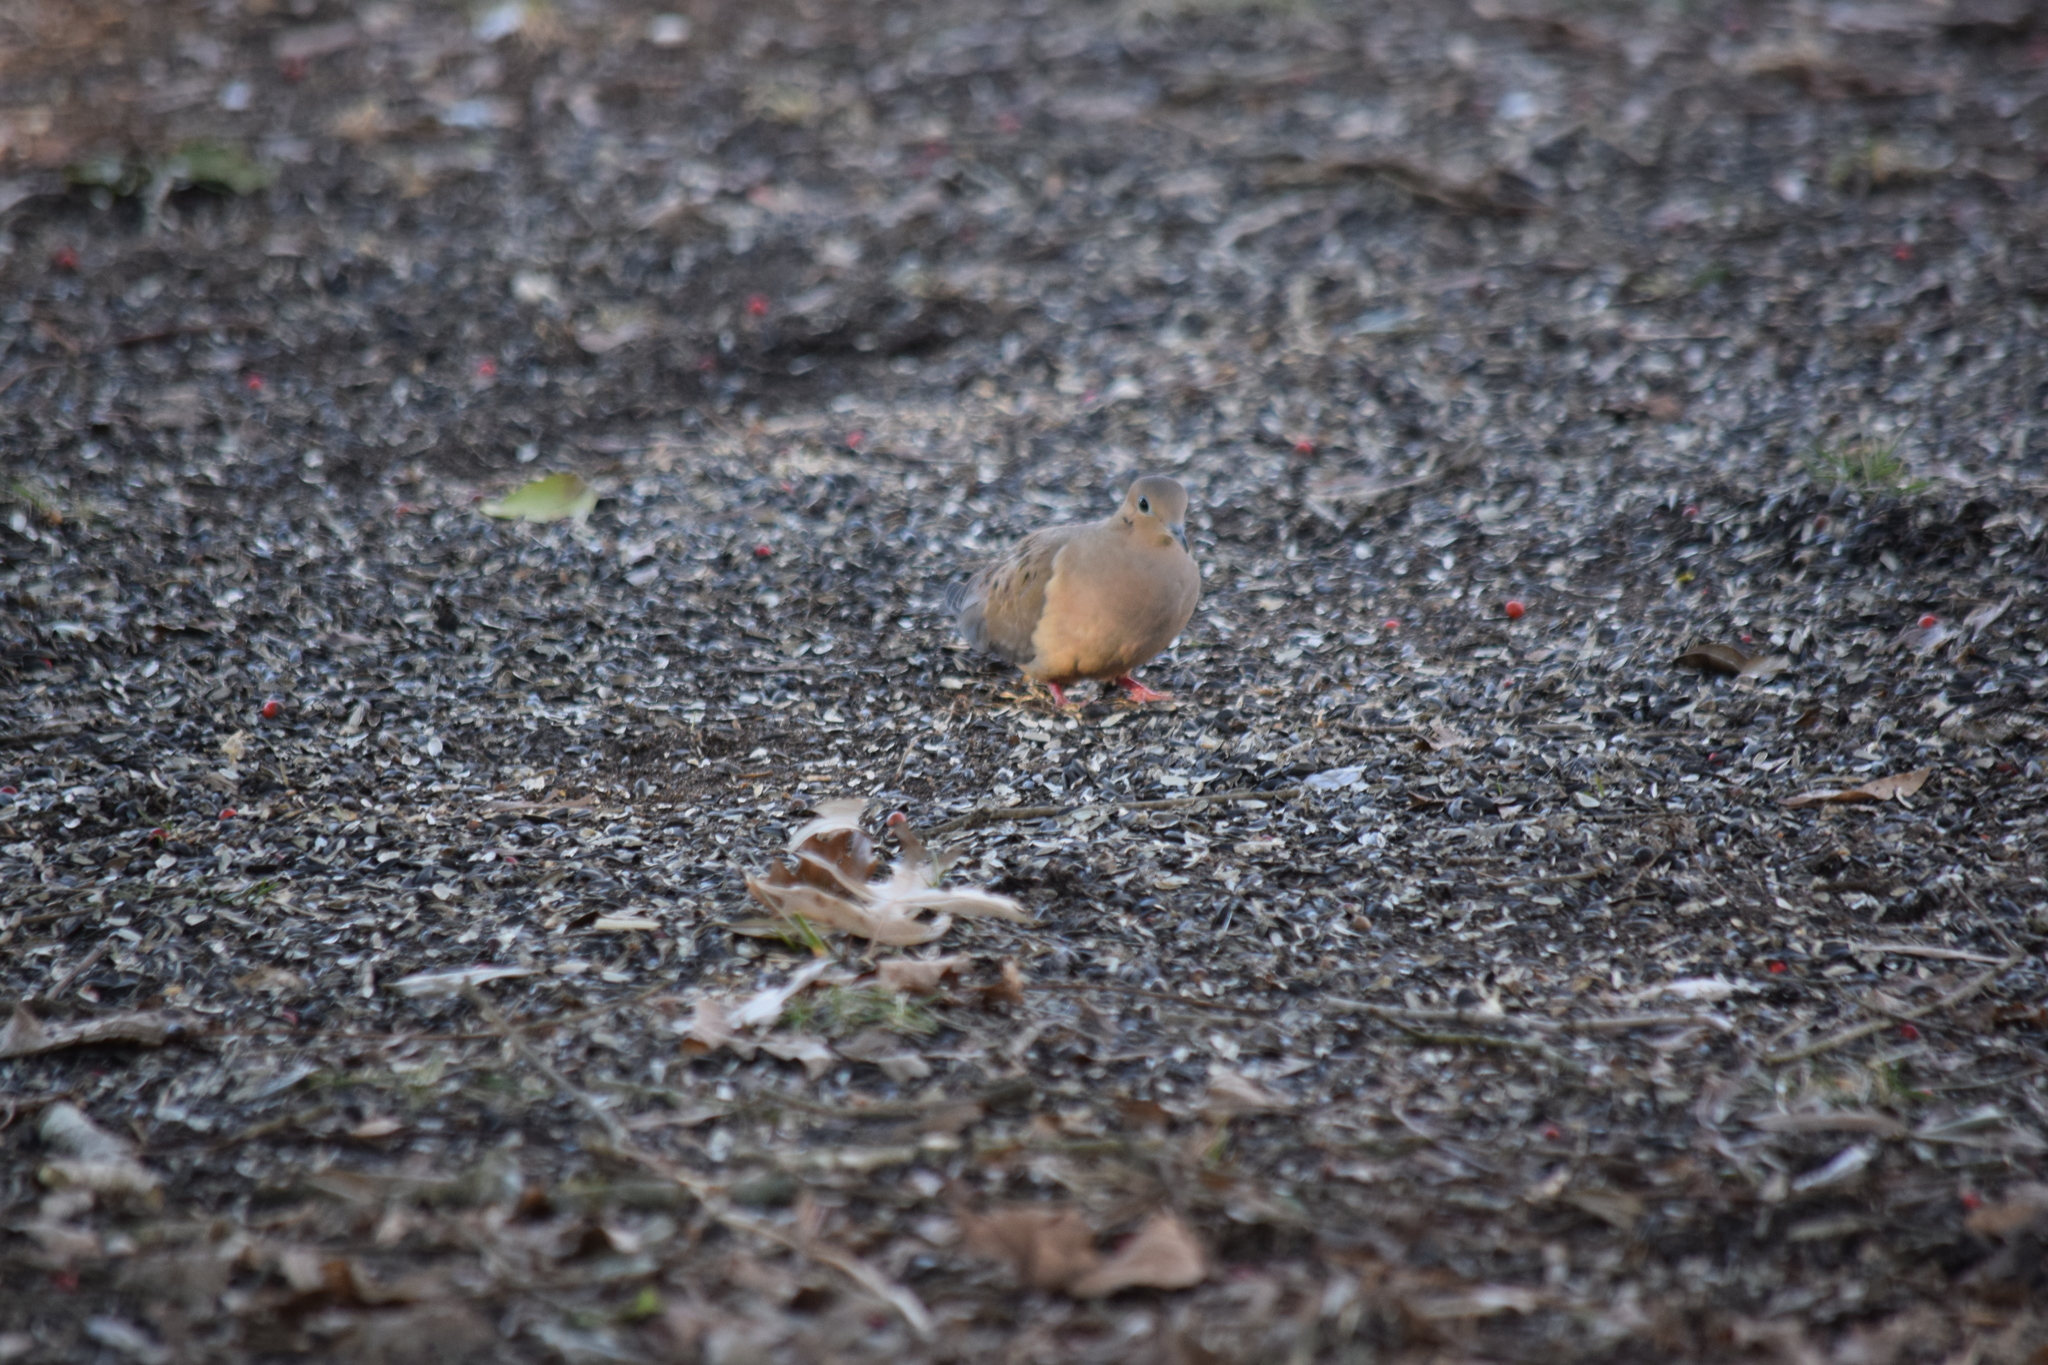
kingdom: Animalia
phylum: Chordata
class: Aves
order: Columbiformes
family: Columbidae
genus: Zenaida
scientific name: Zenaida macroura
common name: Mourning dove
